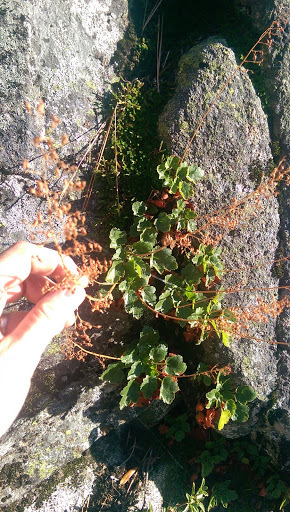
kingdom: Plantae
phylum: Tracheophyta
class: Magnoliopsida
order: Saxifragales
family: Saxifragaceae
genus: Heuchera
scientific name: Heuchera rubescens
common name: Jack-o'the-rocks
